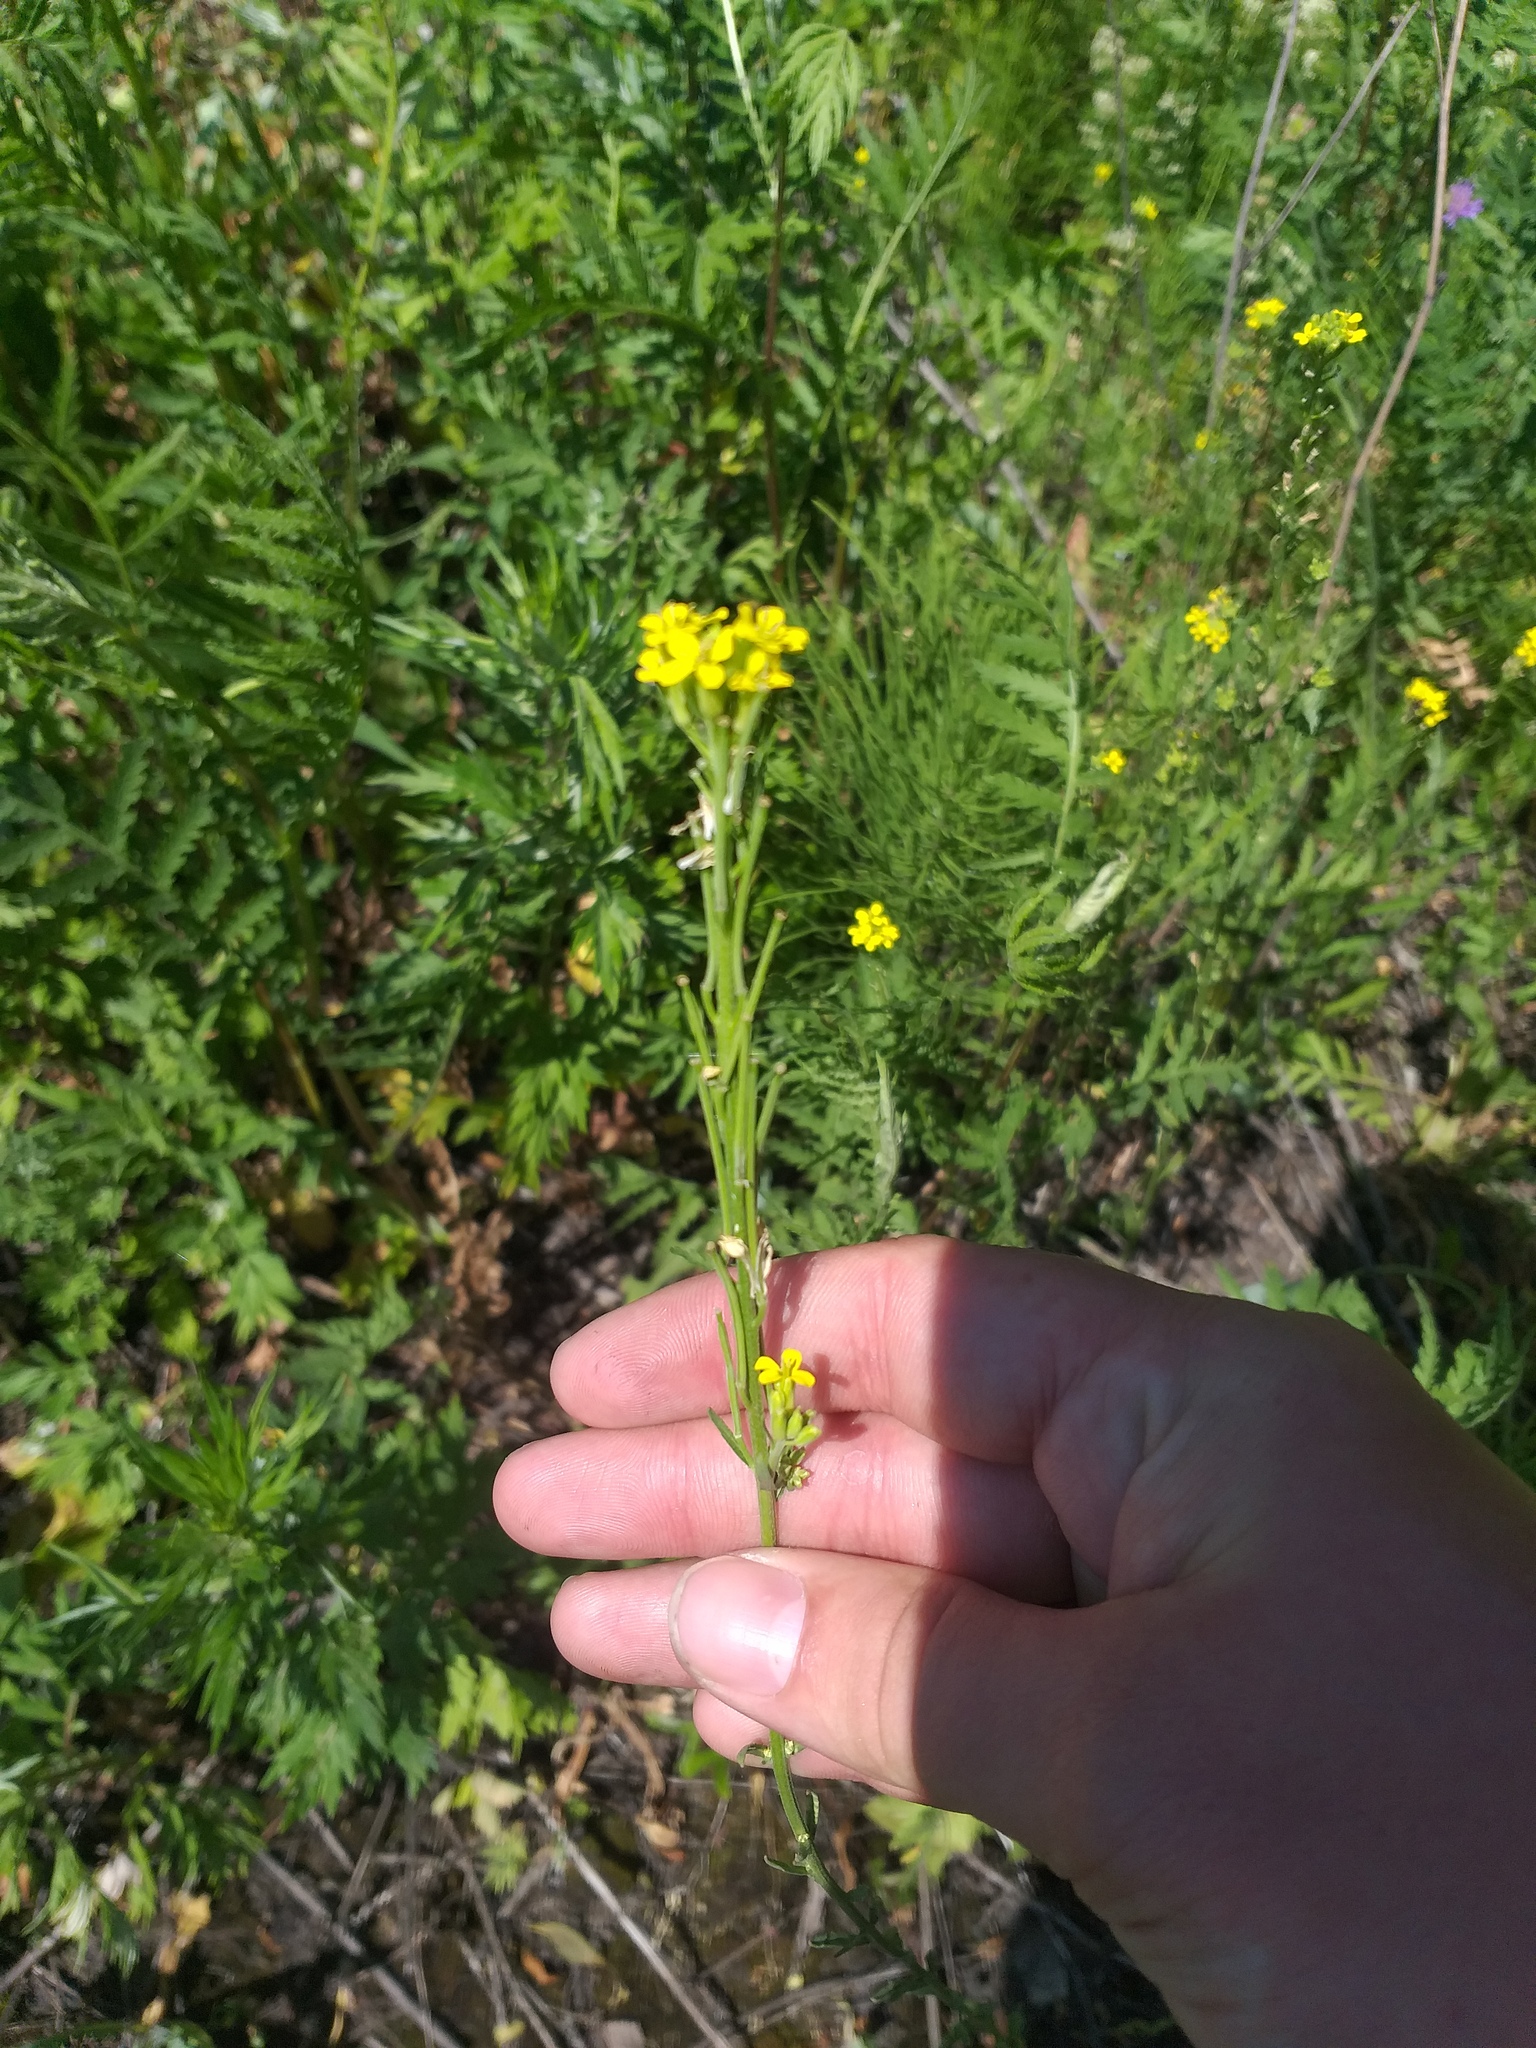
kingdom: Plantae
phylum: Tracheophyta
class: Magnoliopsida
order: Brassicales
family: Brassicaceae
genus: Erysimum
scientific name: Erysimum hieraciifolium
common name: European wallflower
